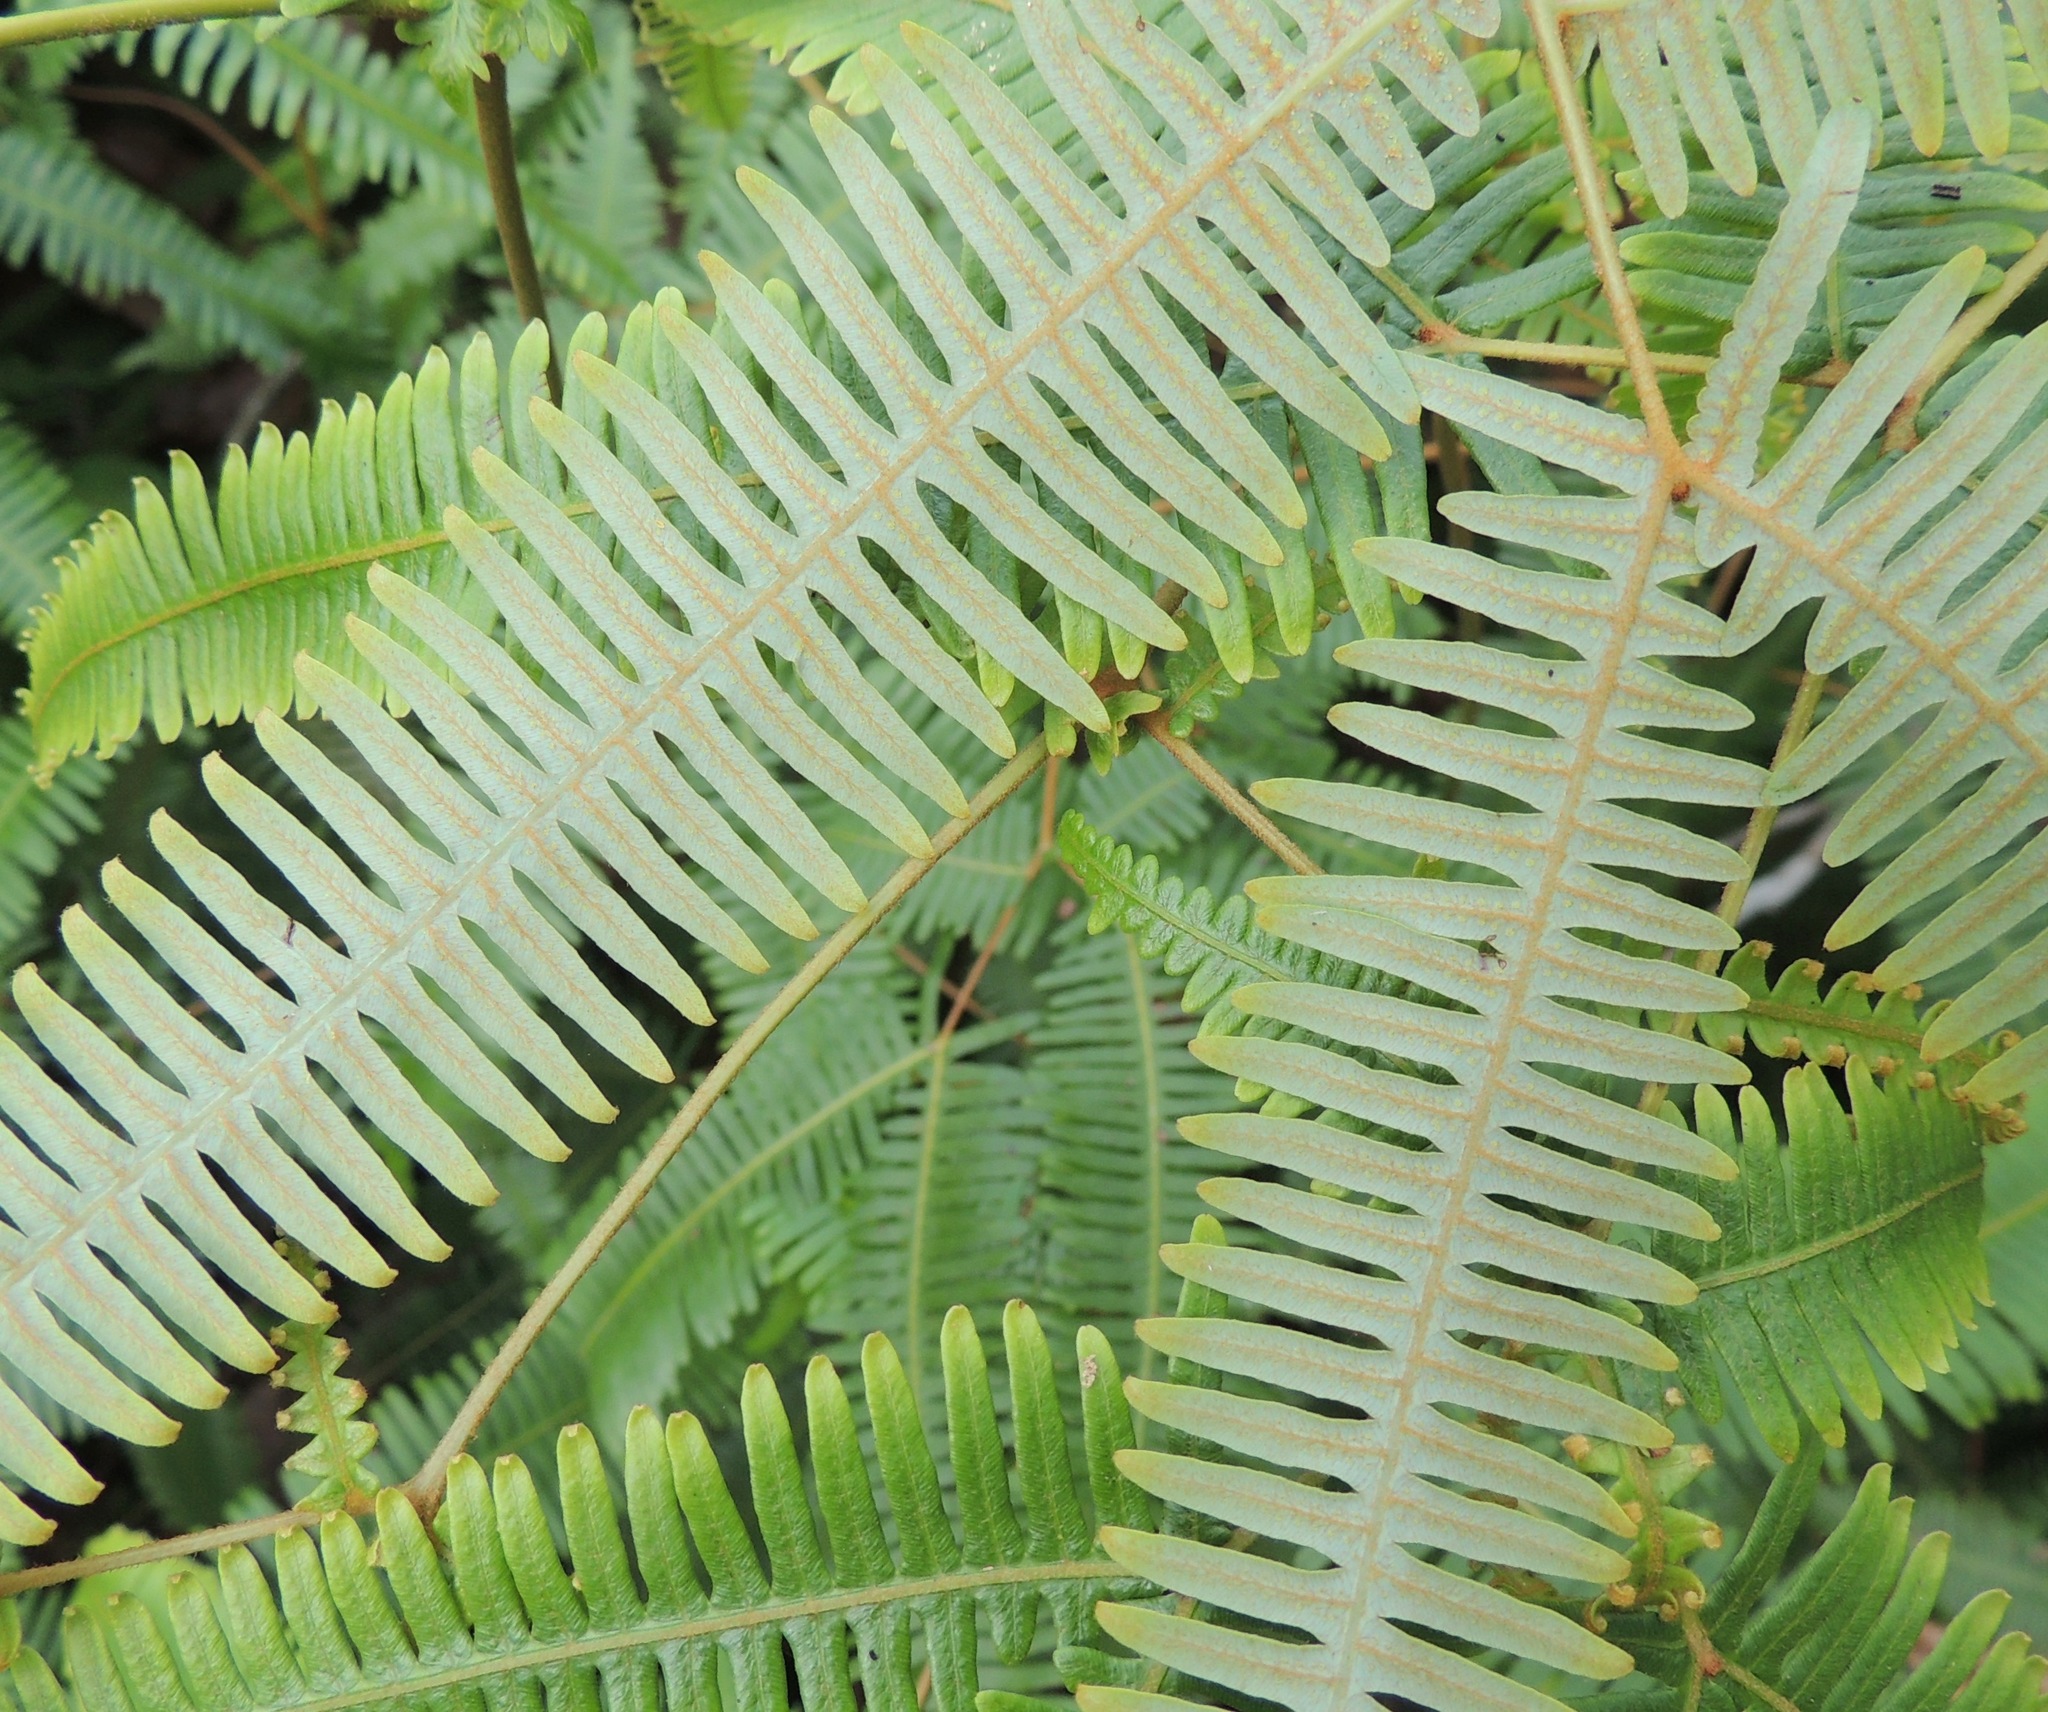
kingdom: Plantae
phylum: Tracheophyta
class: Polypodiopsida
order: Gleicheniales
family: Gleicheniaceae
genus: Dicranopteris
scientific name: Dicranopteris linearis
